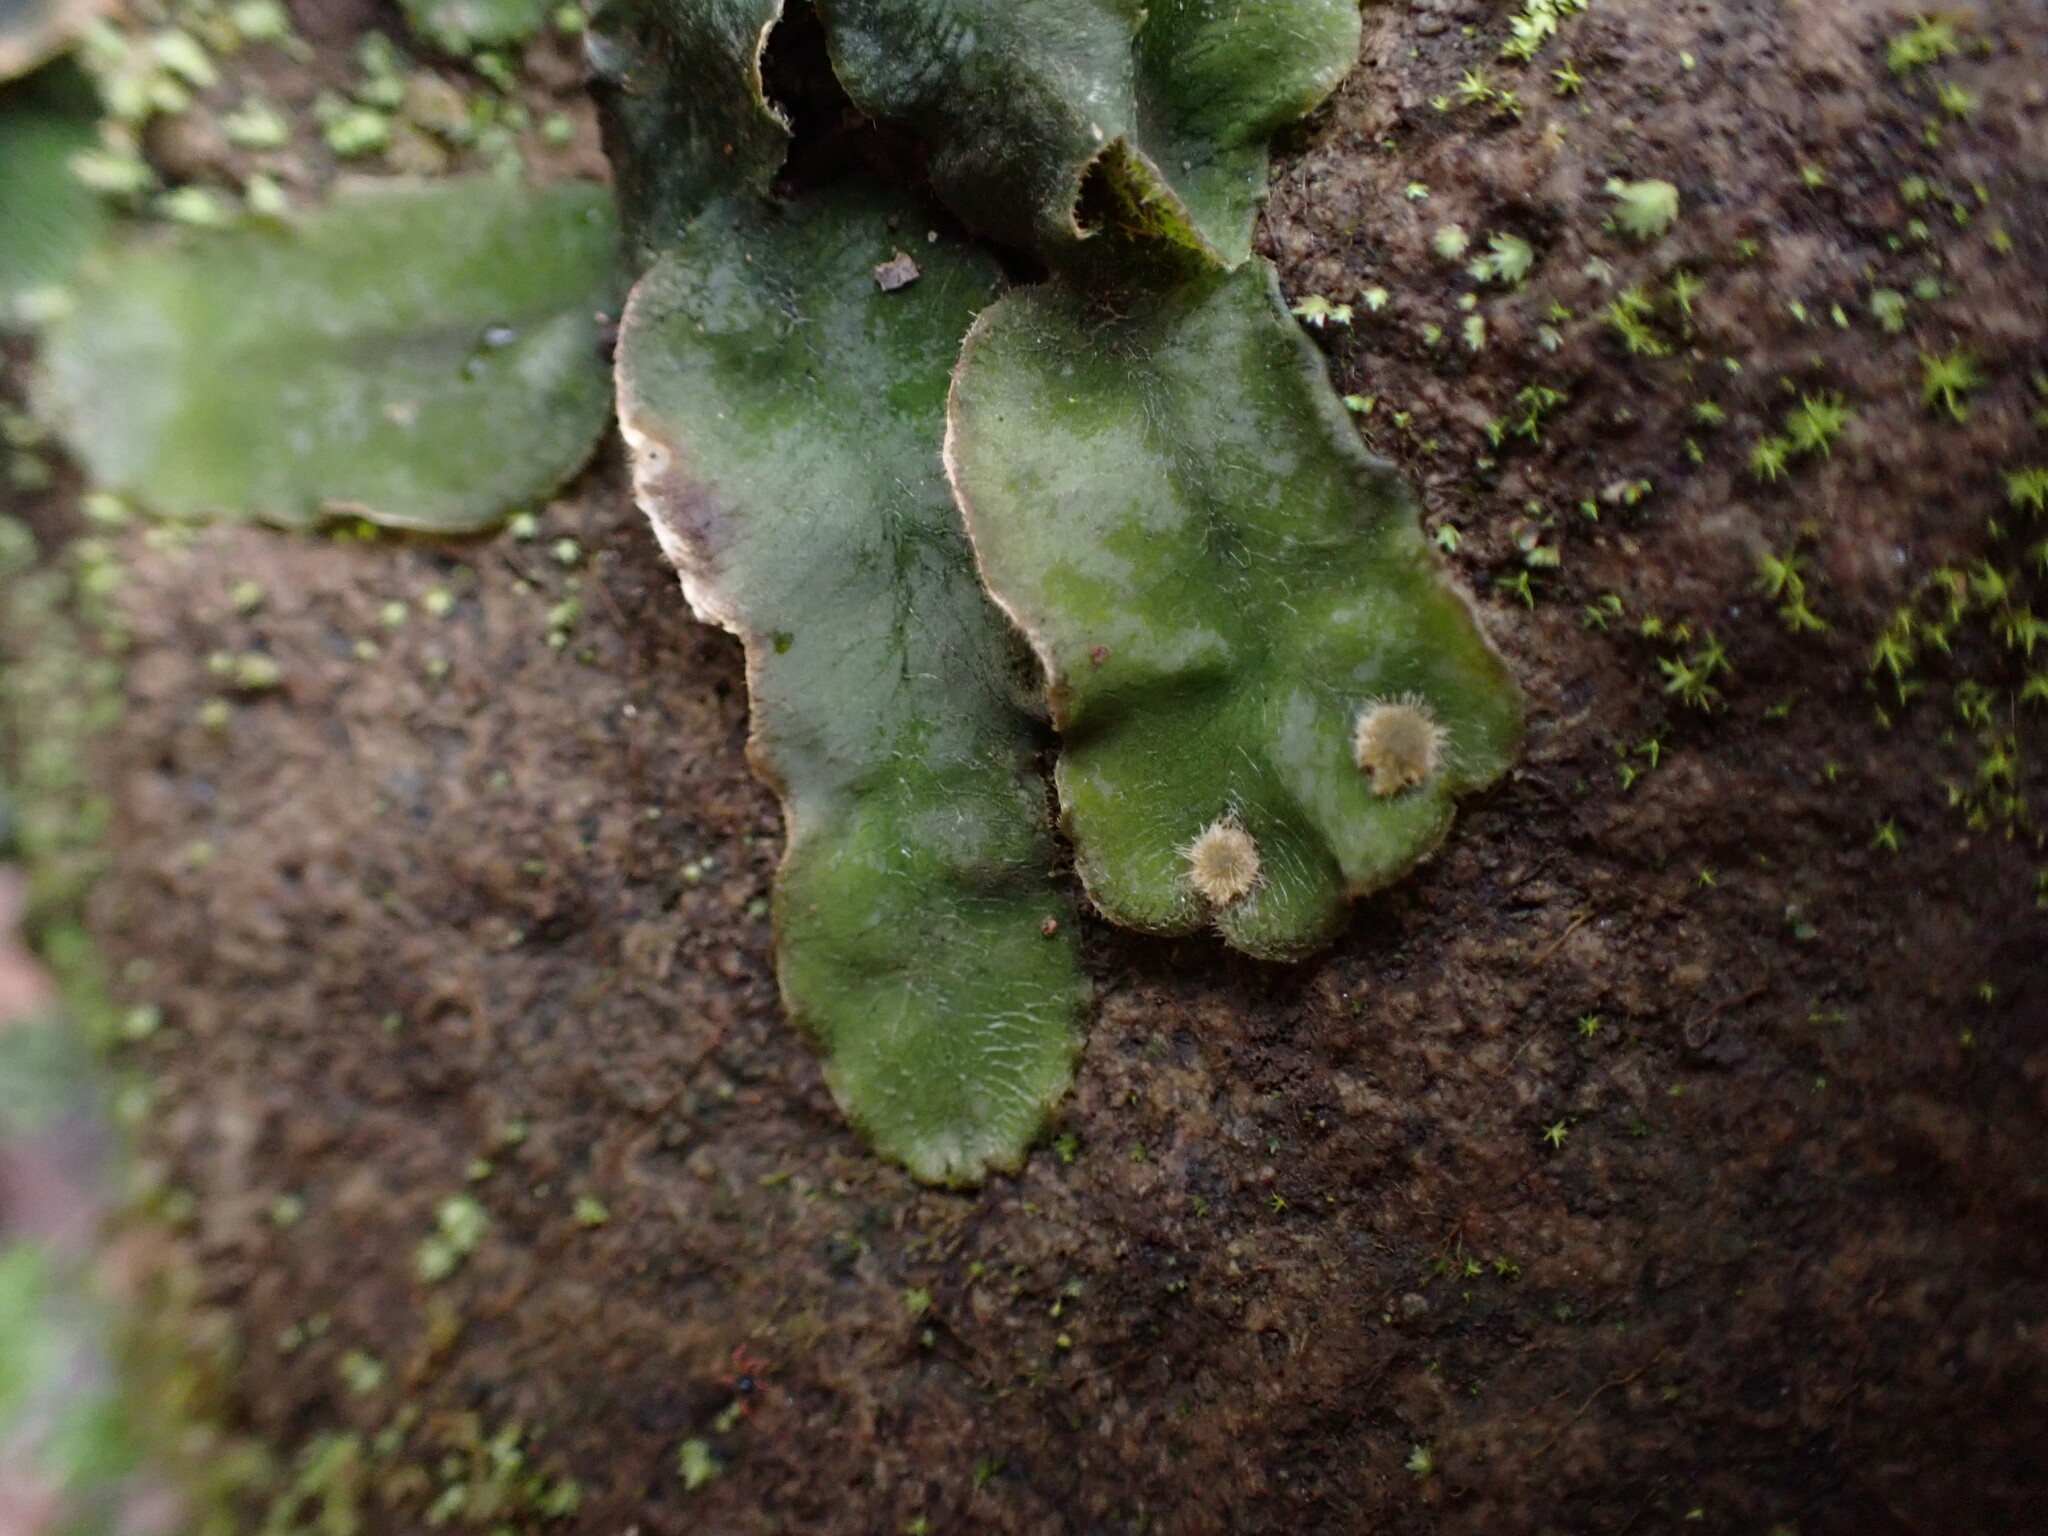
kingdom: Plantae
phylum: Marchantiophyta
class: Marchantiopsida
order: Marchantiales
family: Dumortieraceae
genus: Dumortiera
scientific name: Dumortiera hirsuta
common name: Dumortier's liverwort
